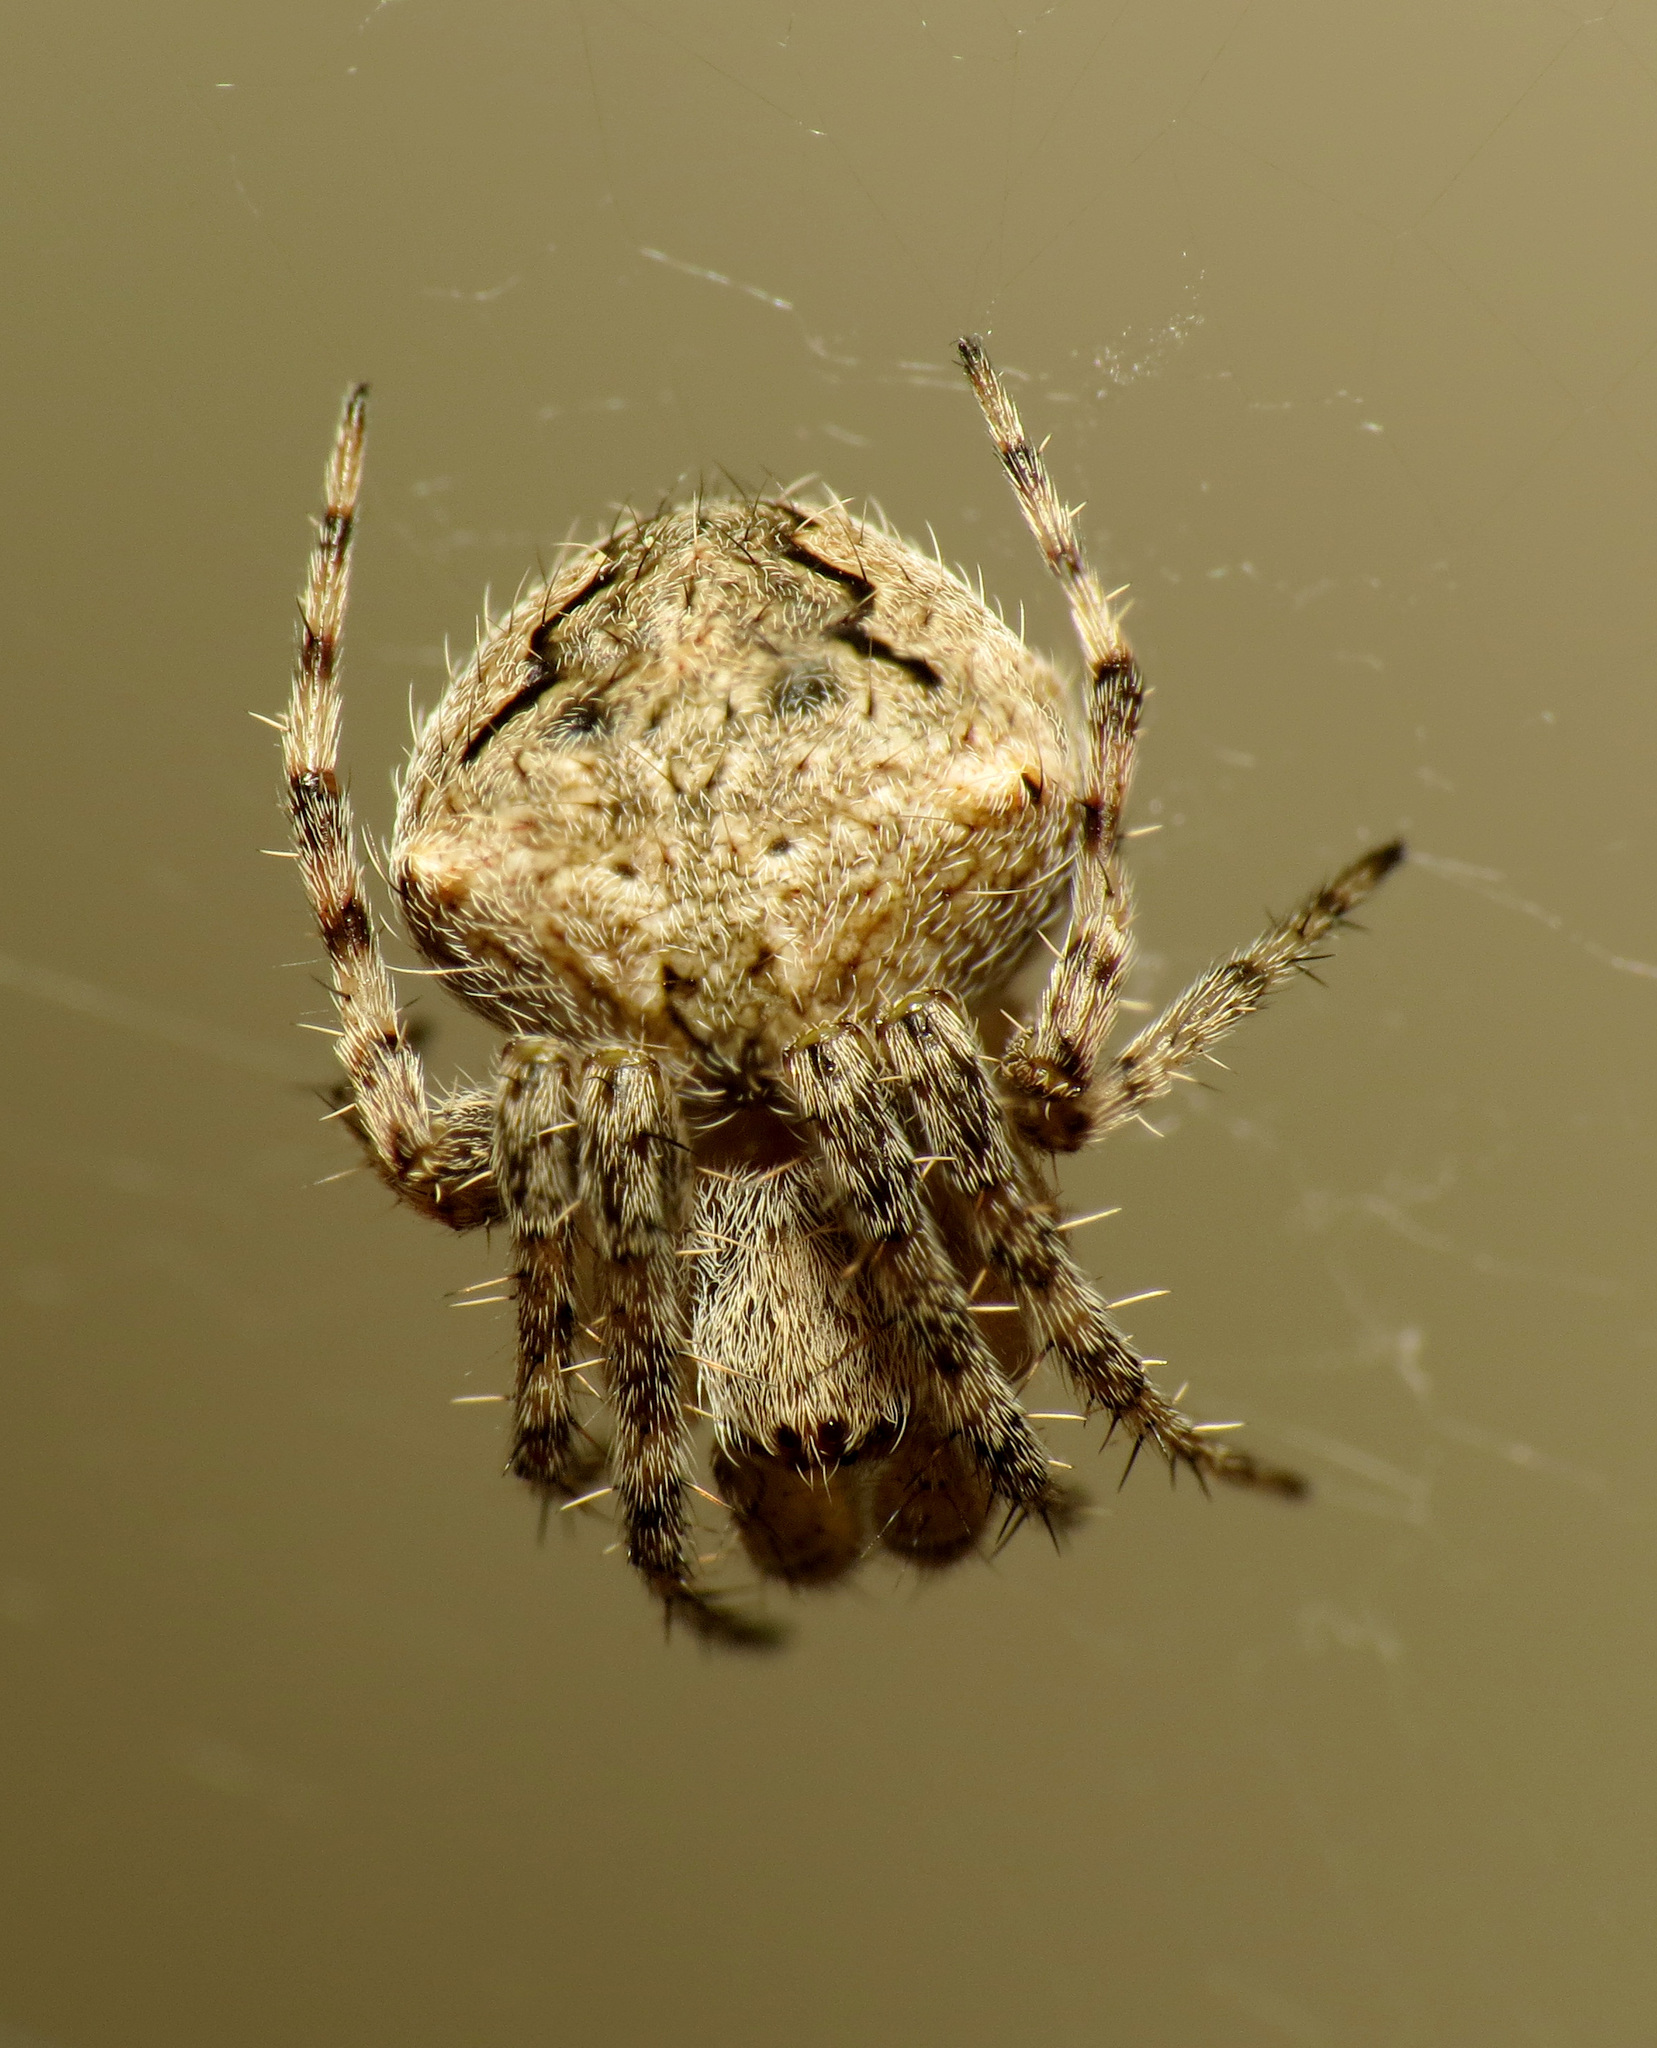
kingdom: Animalia
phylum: Arthropoda
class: Arachnida
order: Araneae
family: Araneidae
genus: Neoscona
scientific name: Neoscona subfusca
